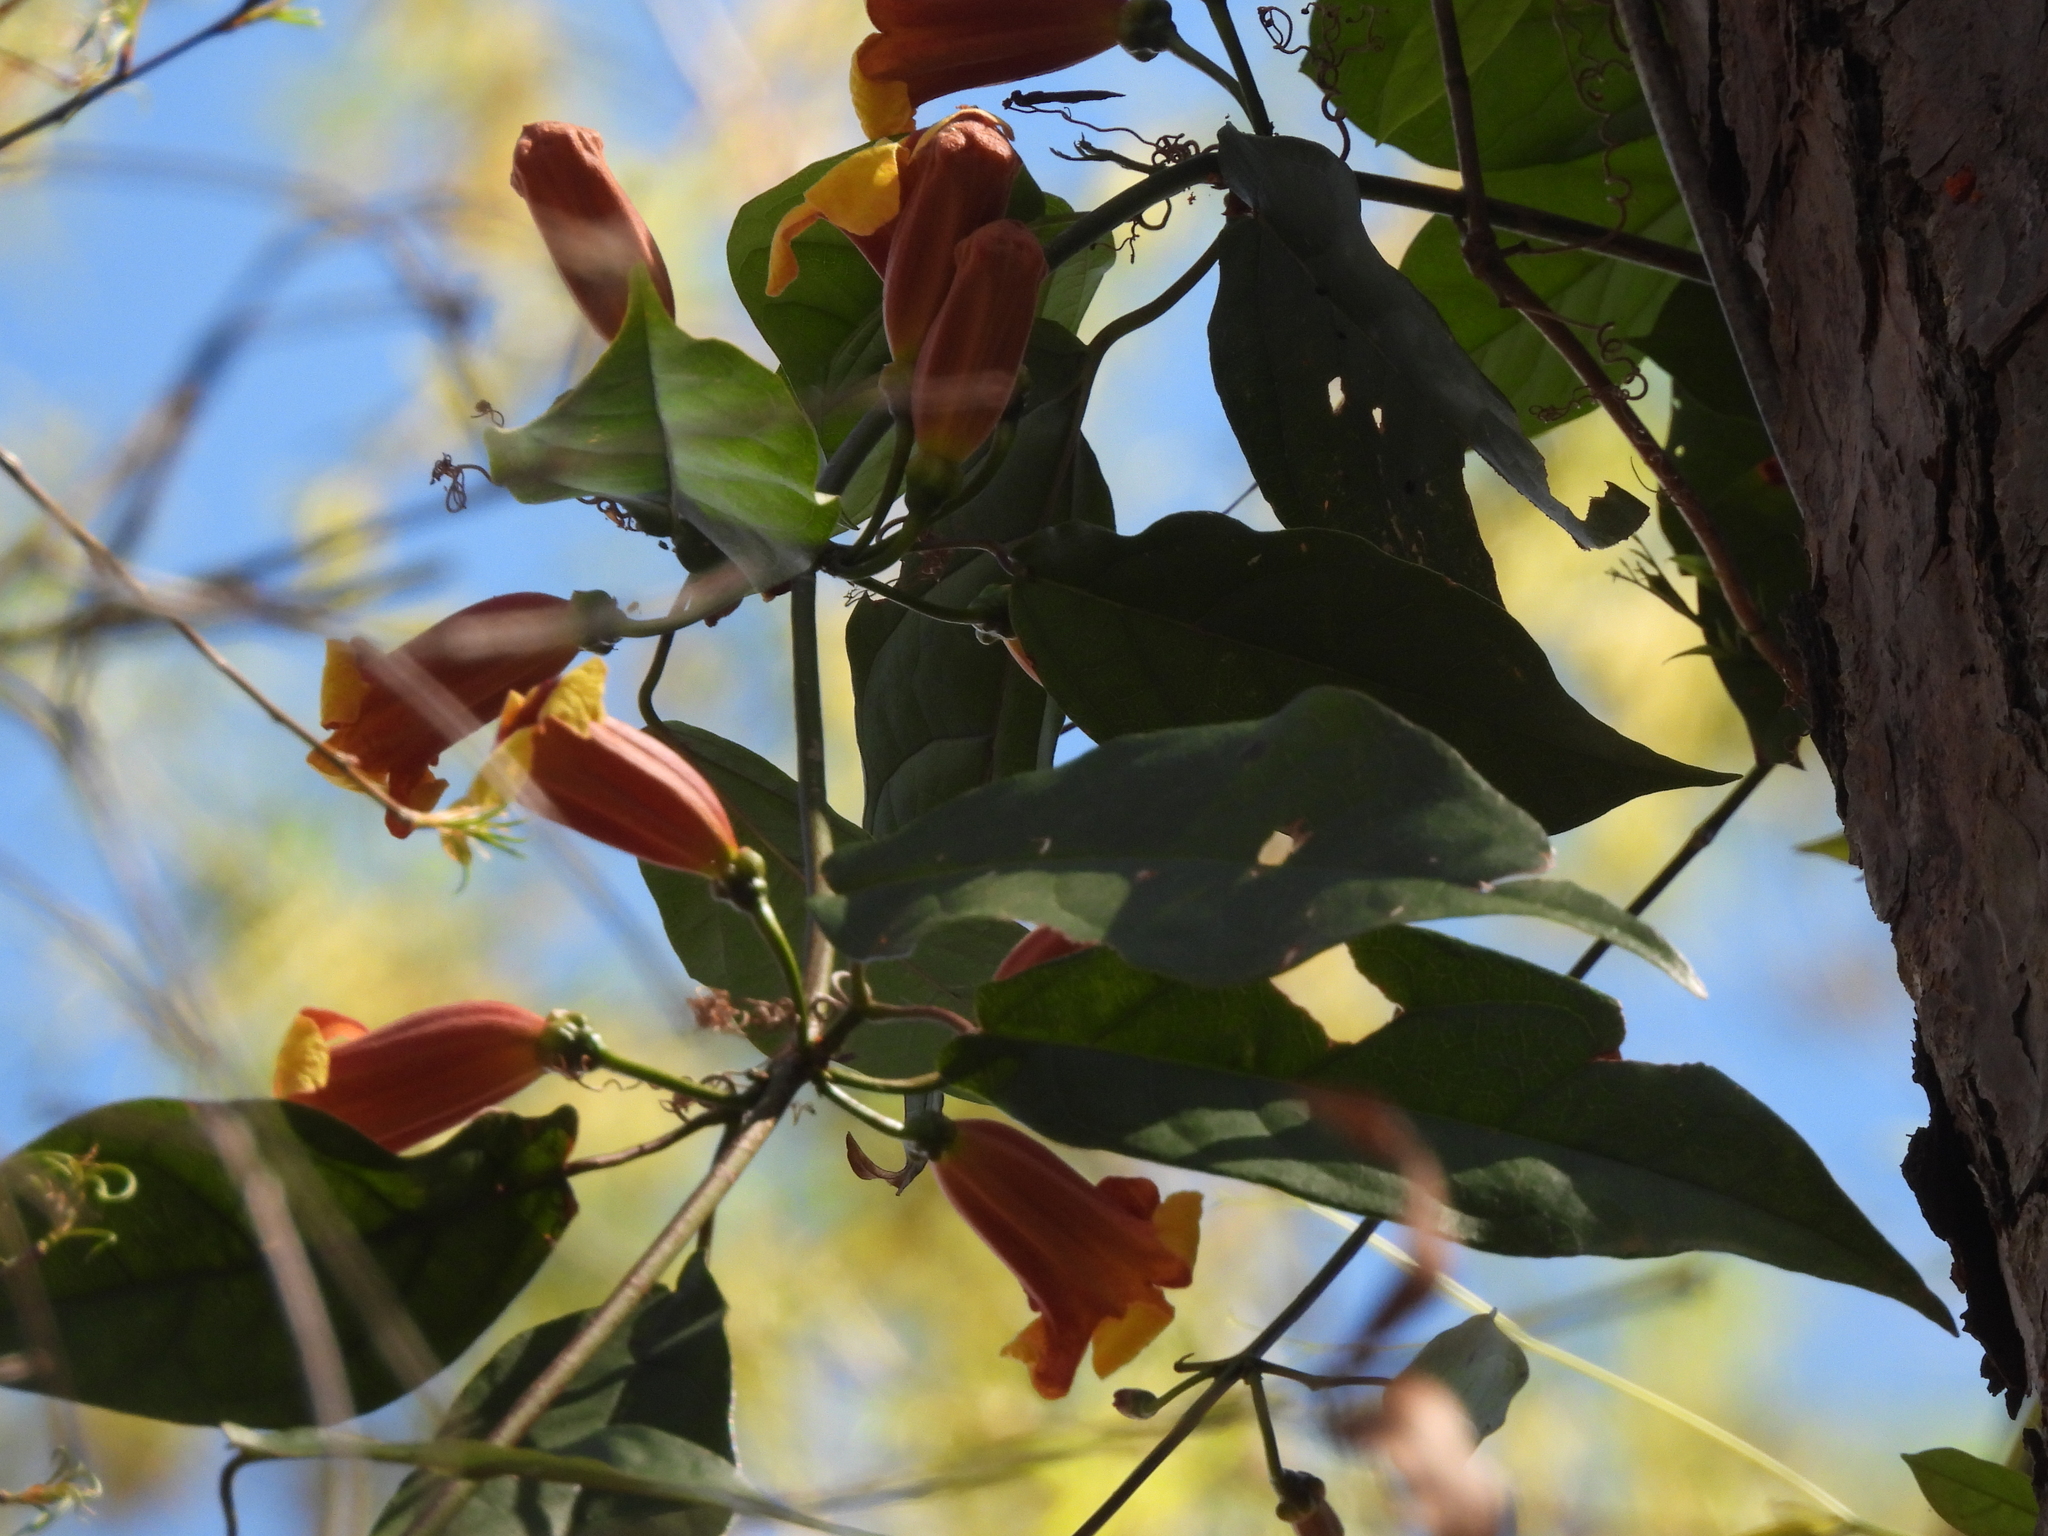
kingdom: Plantae
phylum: Tracheophyta
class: Magnoliopsida
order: Lamiales
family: Bignoniaceae
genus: Bignonia
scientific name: Bignonia capreolata
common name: Crossvine
